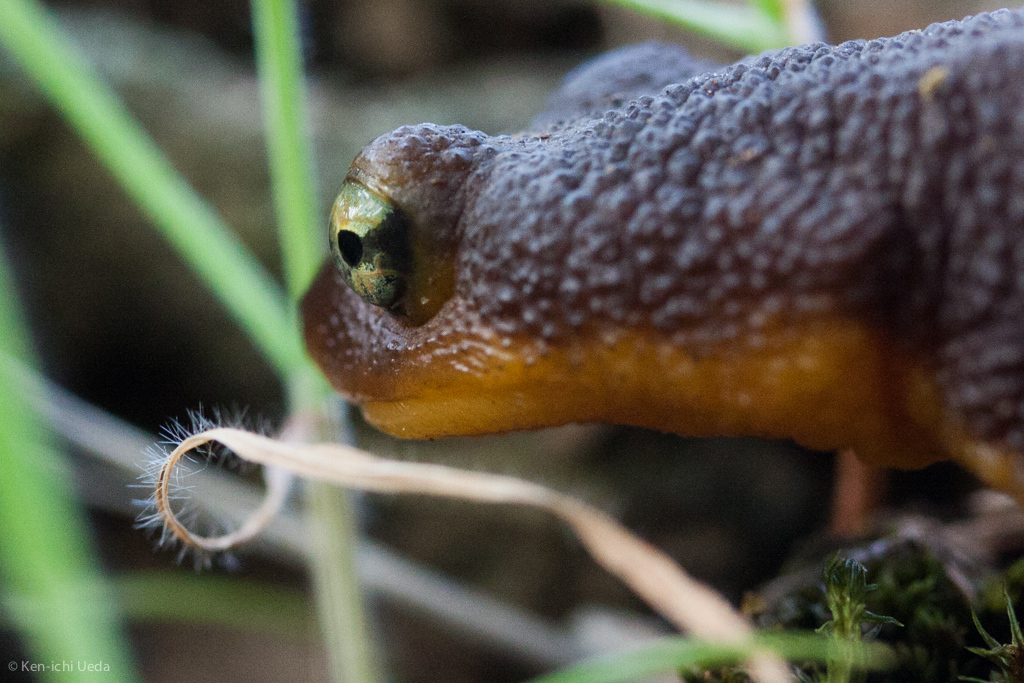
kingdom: Animalia
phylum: Chordata
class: Amphibia
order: Caudata
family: Salamandridae
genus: Taricha
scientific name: Taricha torosa
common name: California newt
